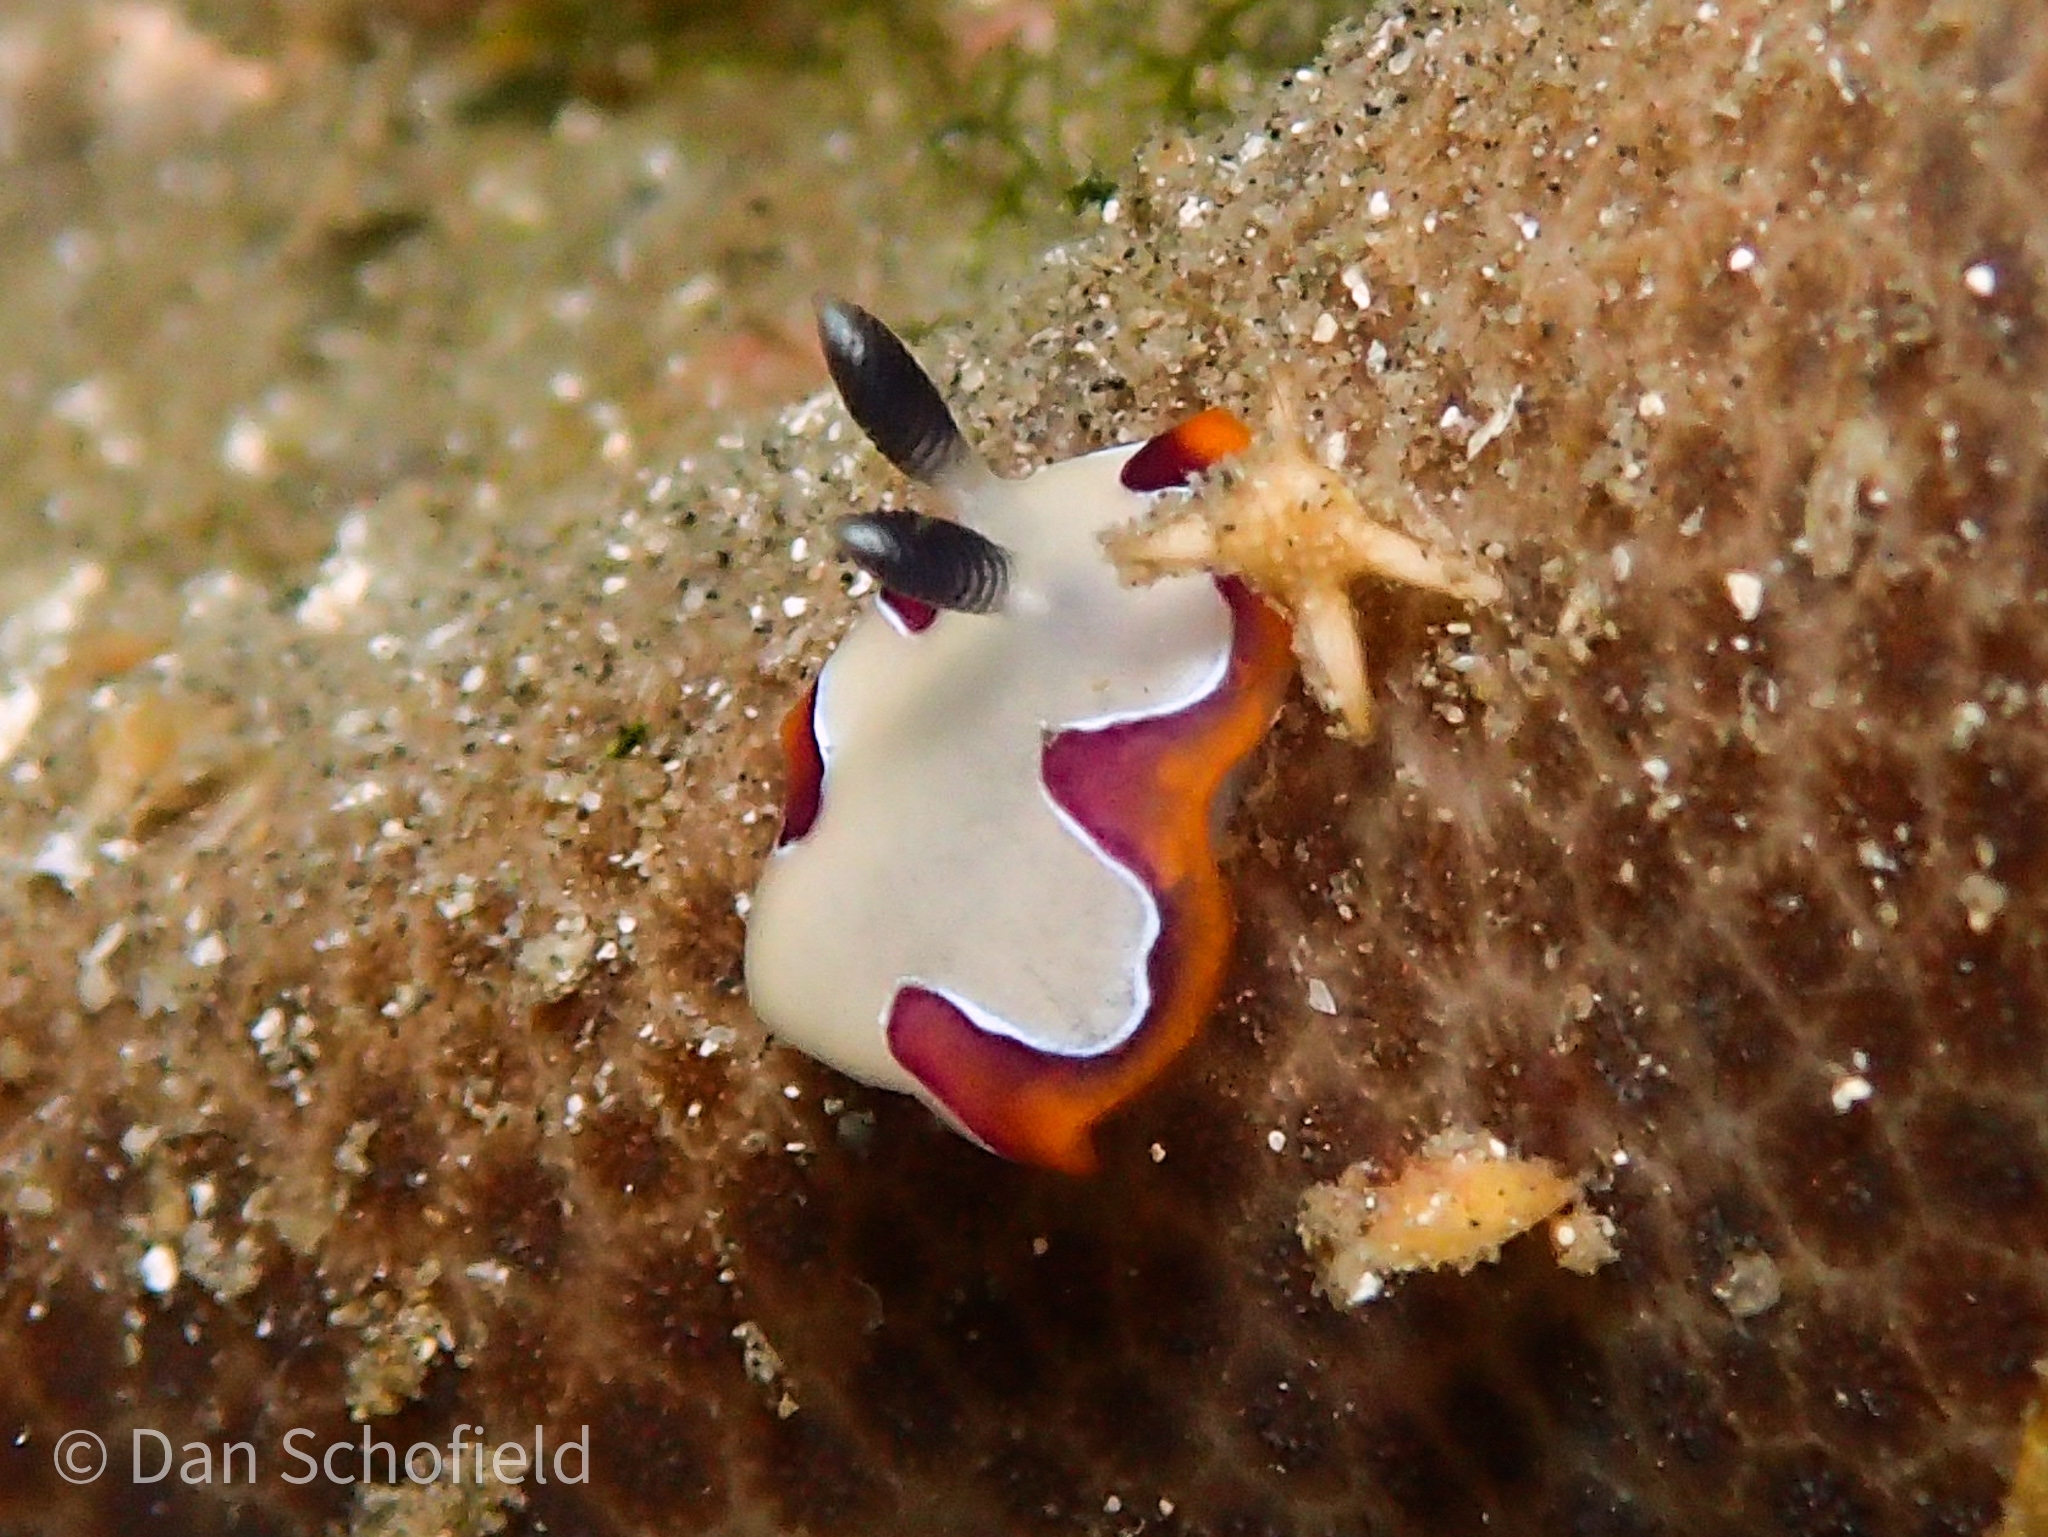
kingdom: Animalia
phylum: Mollusca
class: Gastropoda
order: Nudibranchia
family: Chromodorididae
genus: Goniobranchus
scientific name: Goniobranchus fidelis
